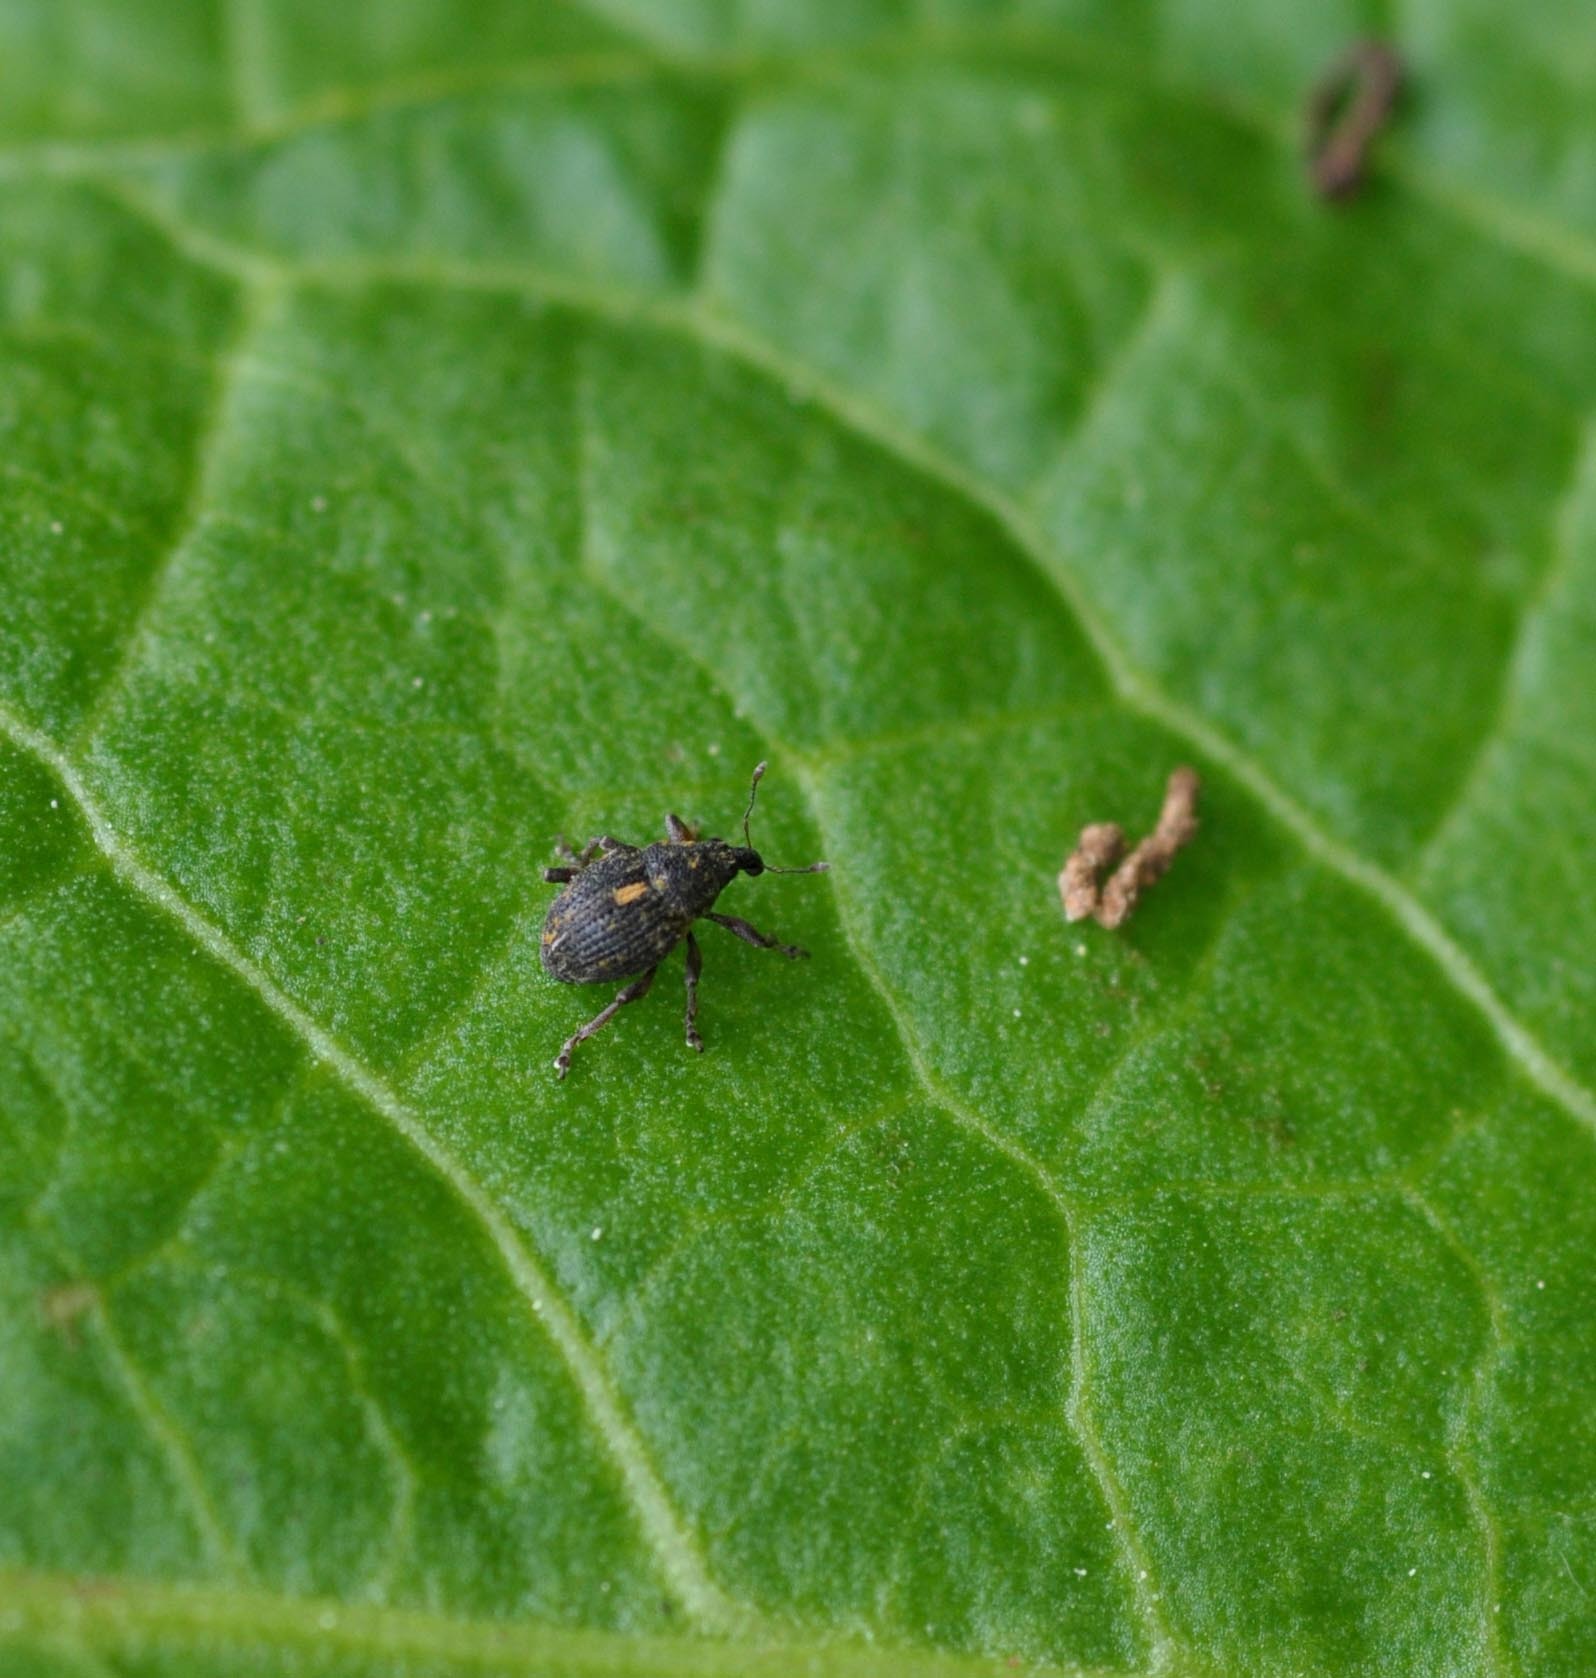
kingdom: Animalia
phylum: Arthropoda
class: Insecta
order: Coleoptera
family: Curculionidae
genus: Rhinoncus
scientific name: Rhinoncus leucostigma
